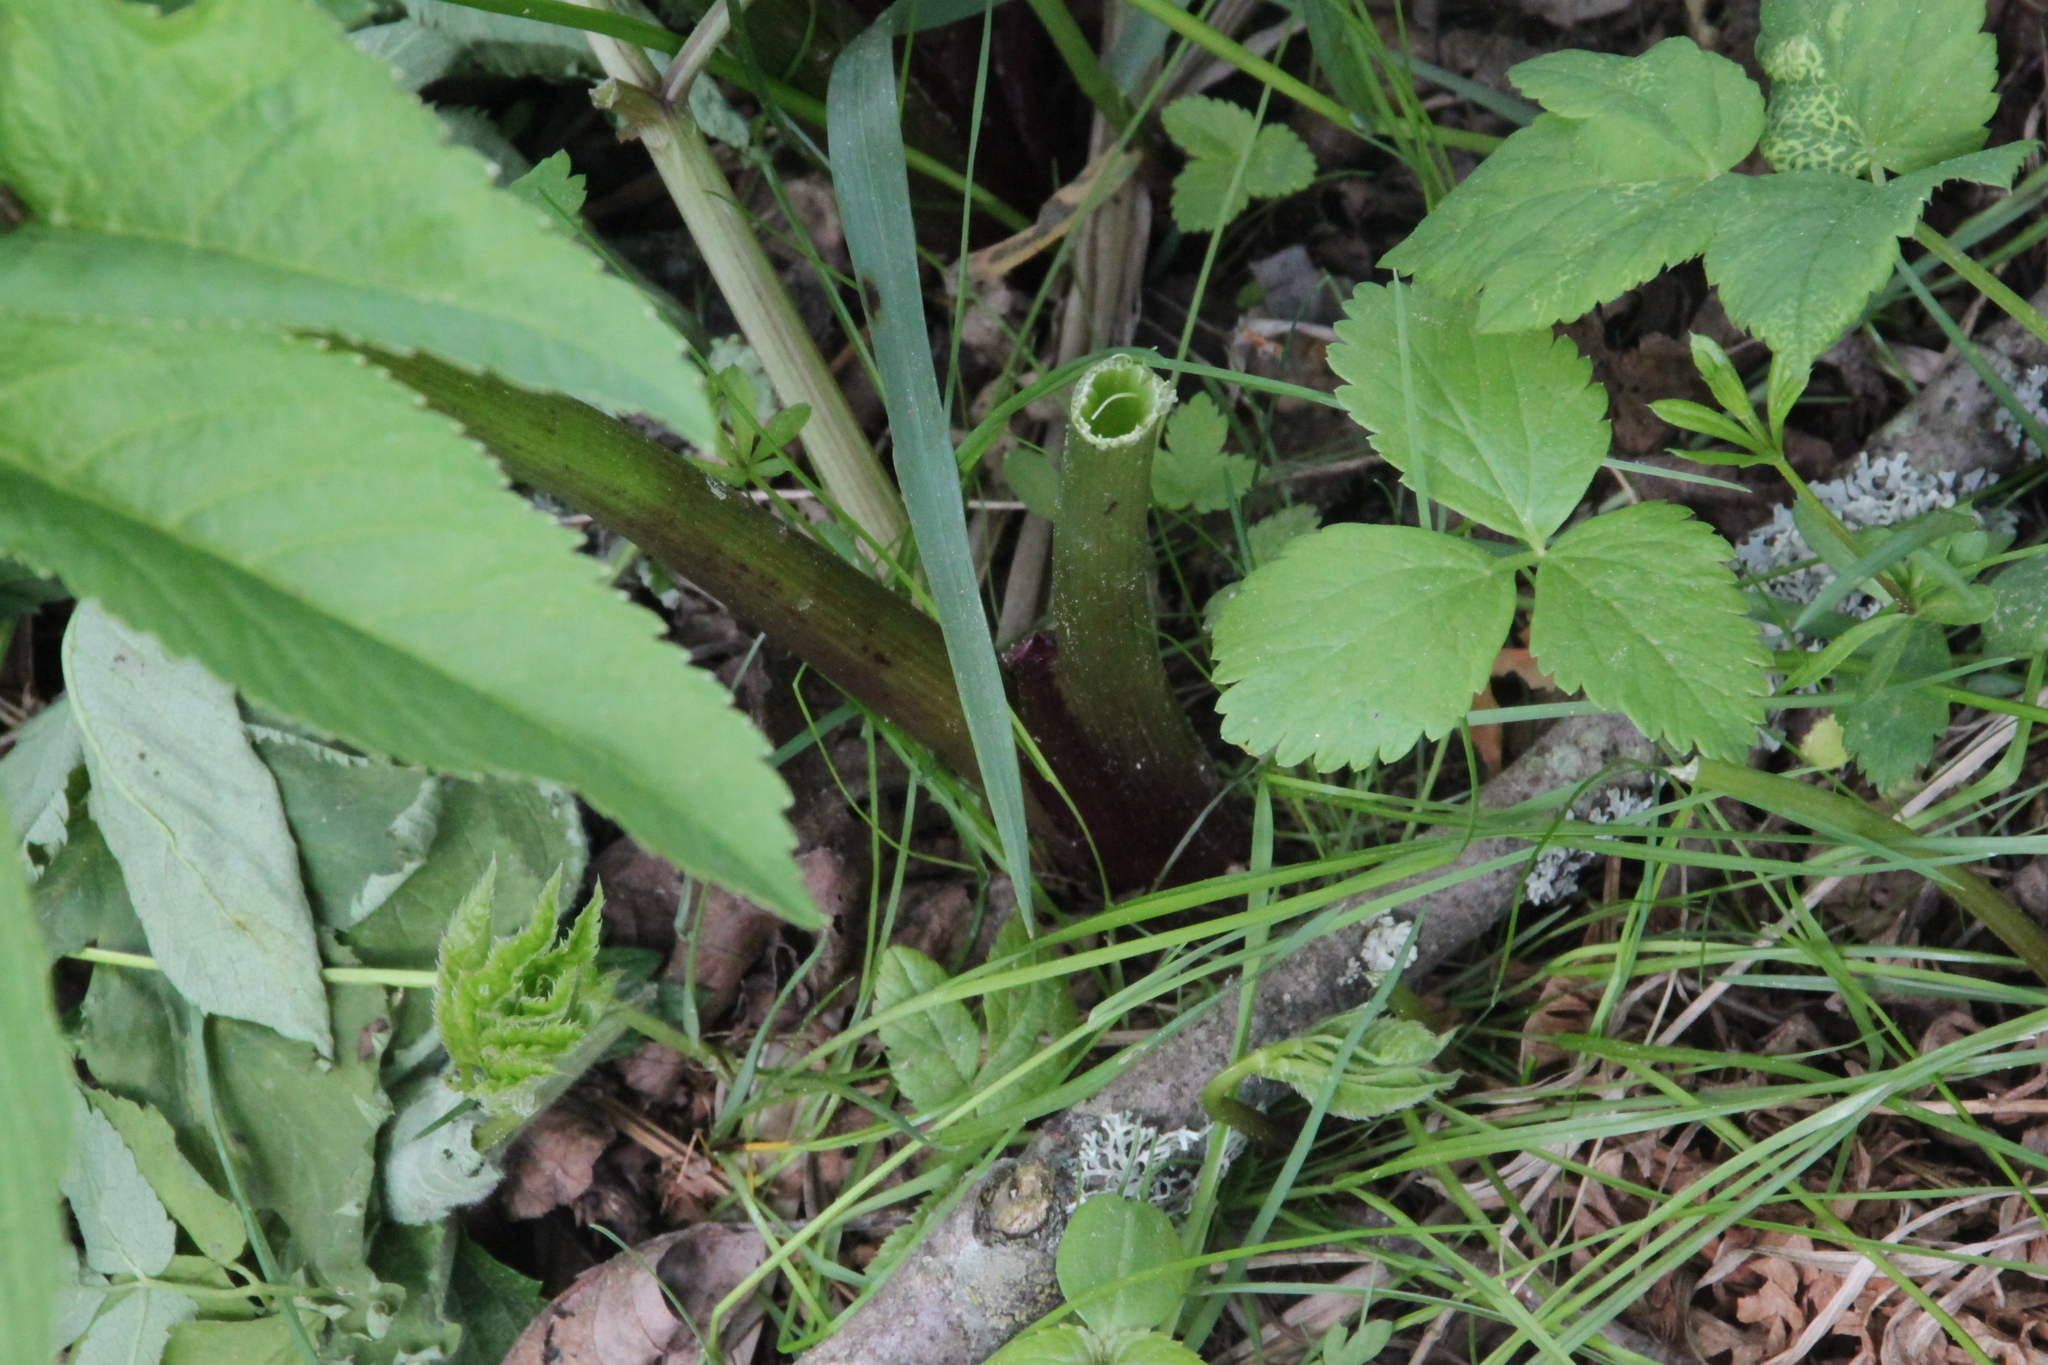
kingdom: Plantae
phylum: Tracheophyta
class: Magnoliopsida
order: Apiales
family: Apiaceae
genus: Angelica
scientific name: Angelica archangelica
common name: Garden angelica
